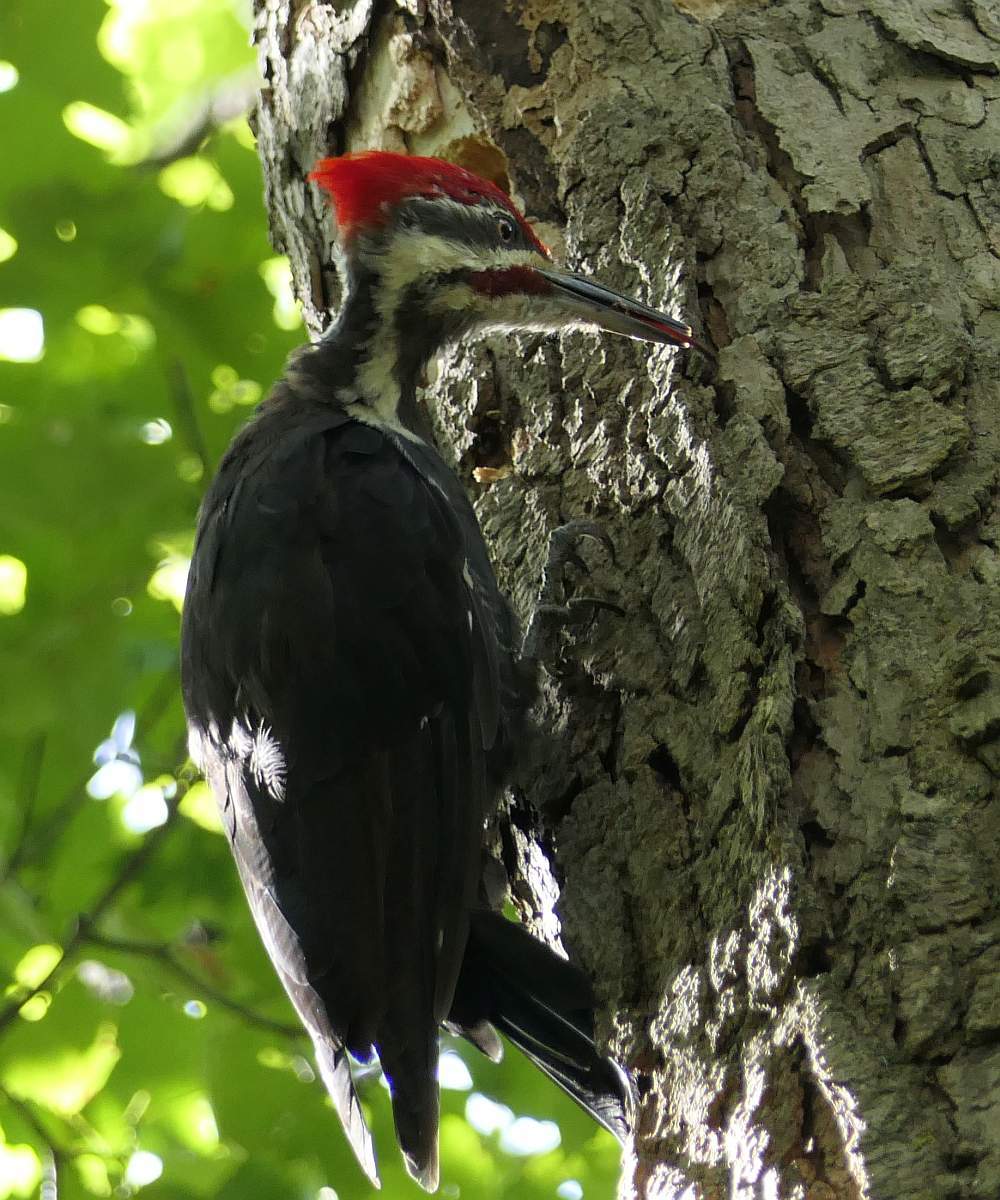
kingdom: Animalia
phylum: Chordata
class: Aves
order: Piciformes
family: Picidae
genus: Dryocopus
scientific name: Dryocopus pileatus
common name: Pileated woodpecker
